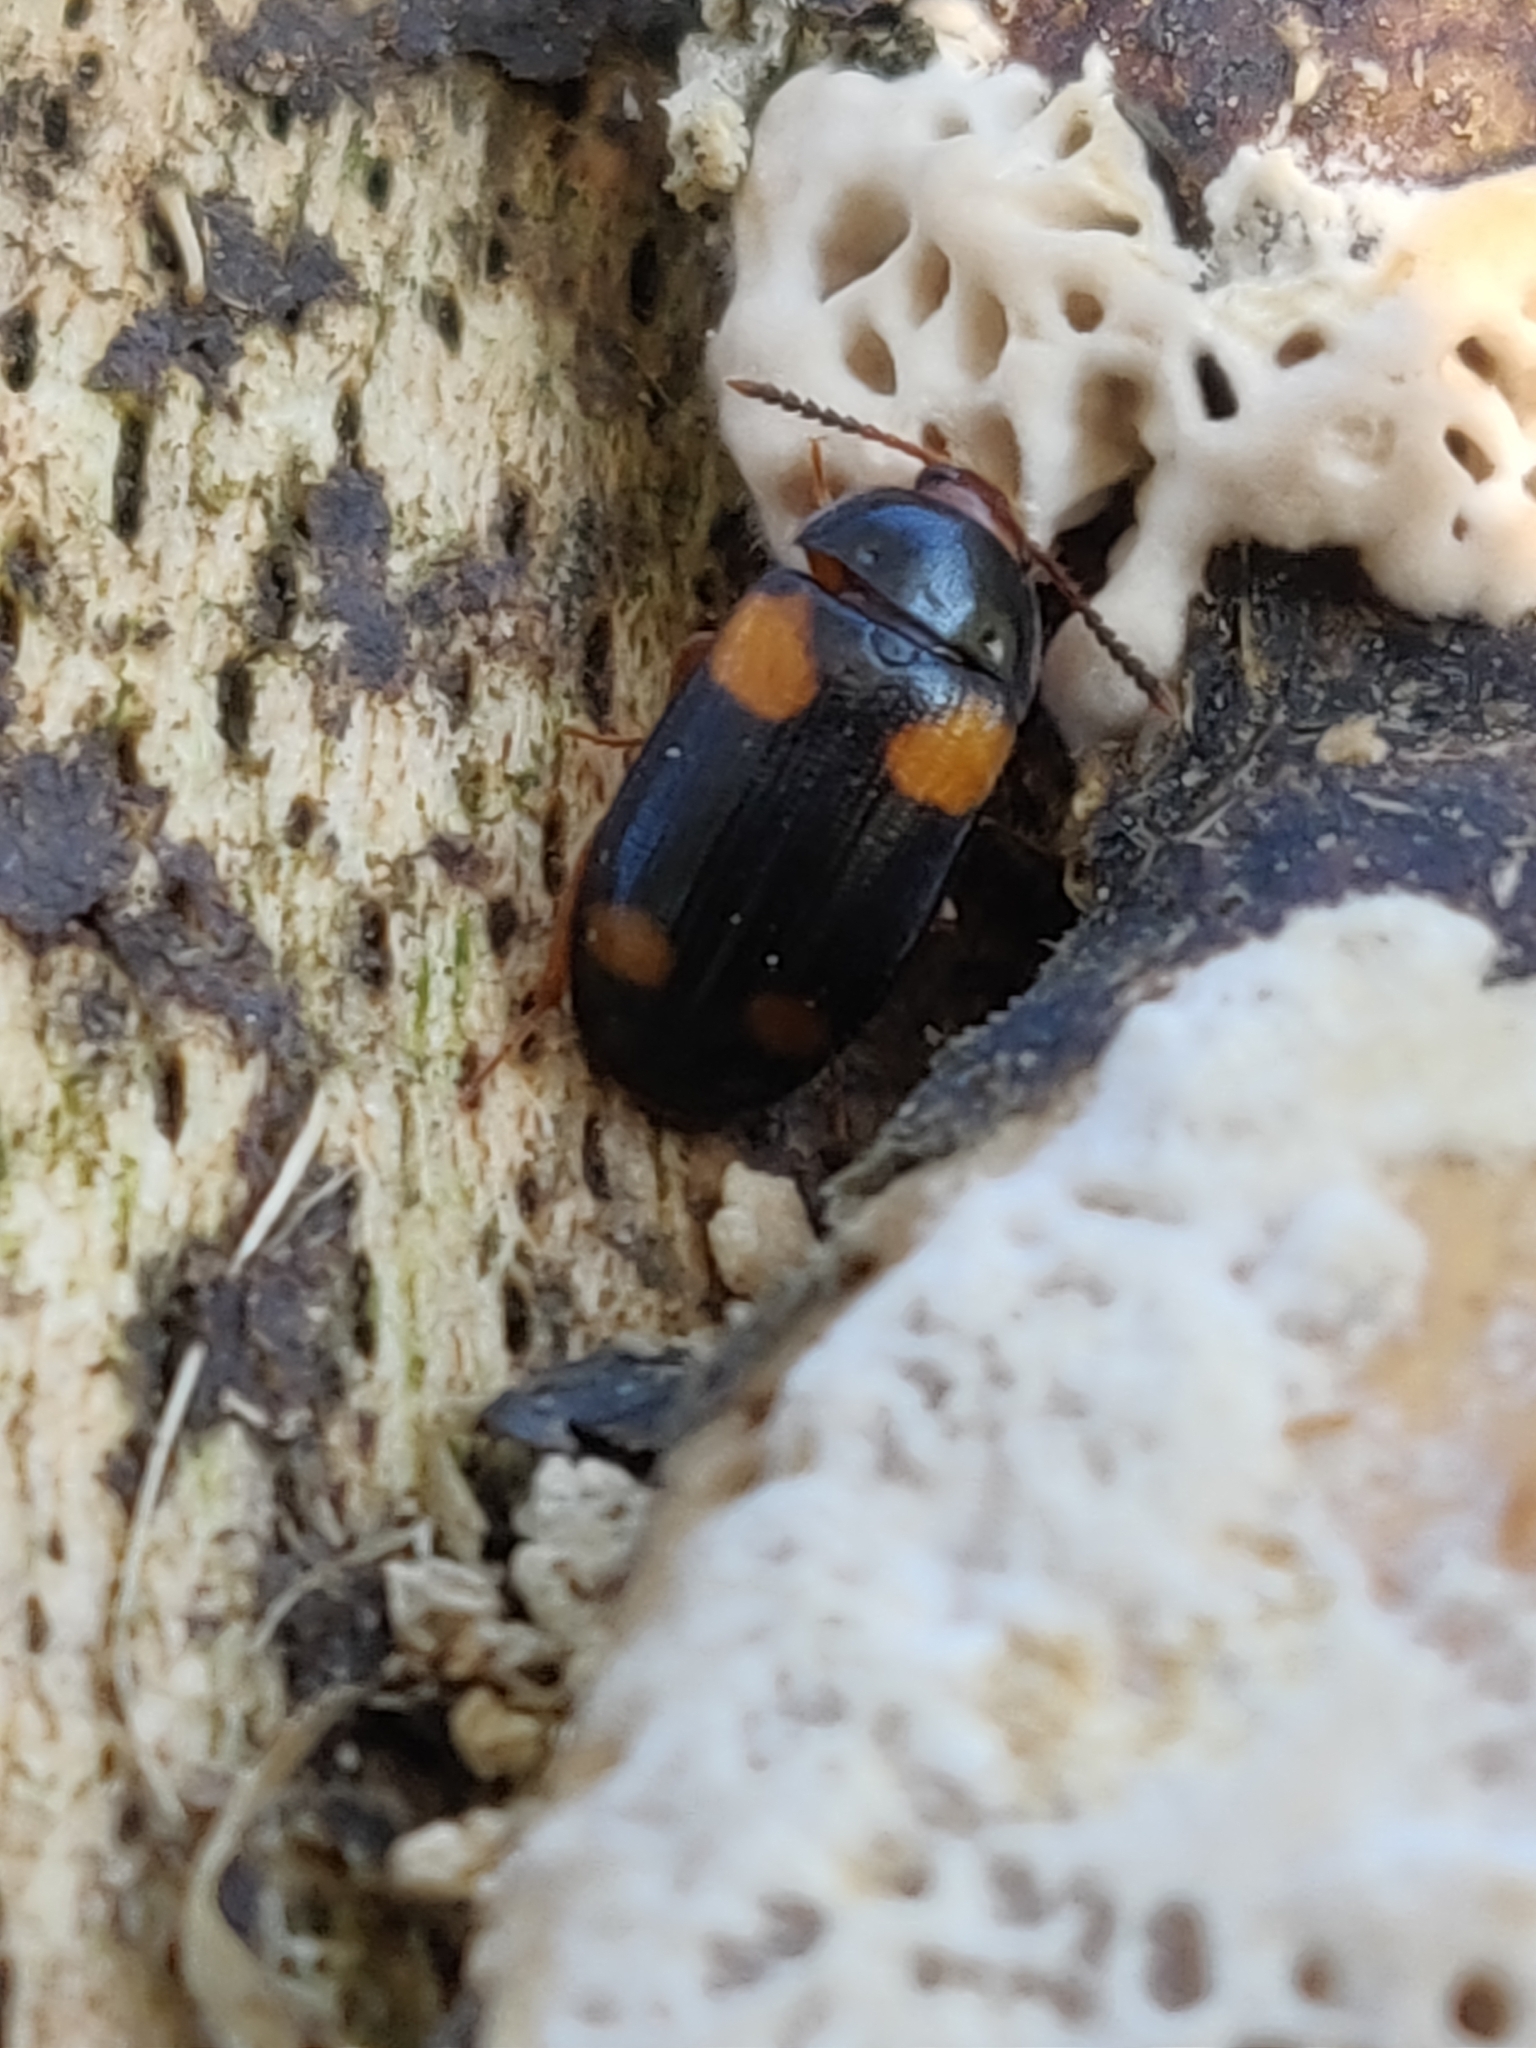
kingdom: Animalia
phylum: Arthropoda
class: Insecta
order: Coleoptera
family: Mycetophagidae
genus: Mycetophagus
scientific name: Mycetophagus quadripustulatus
